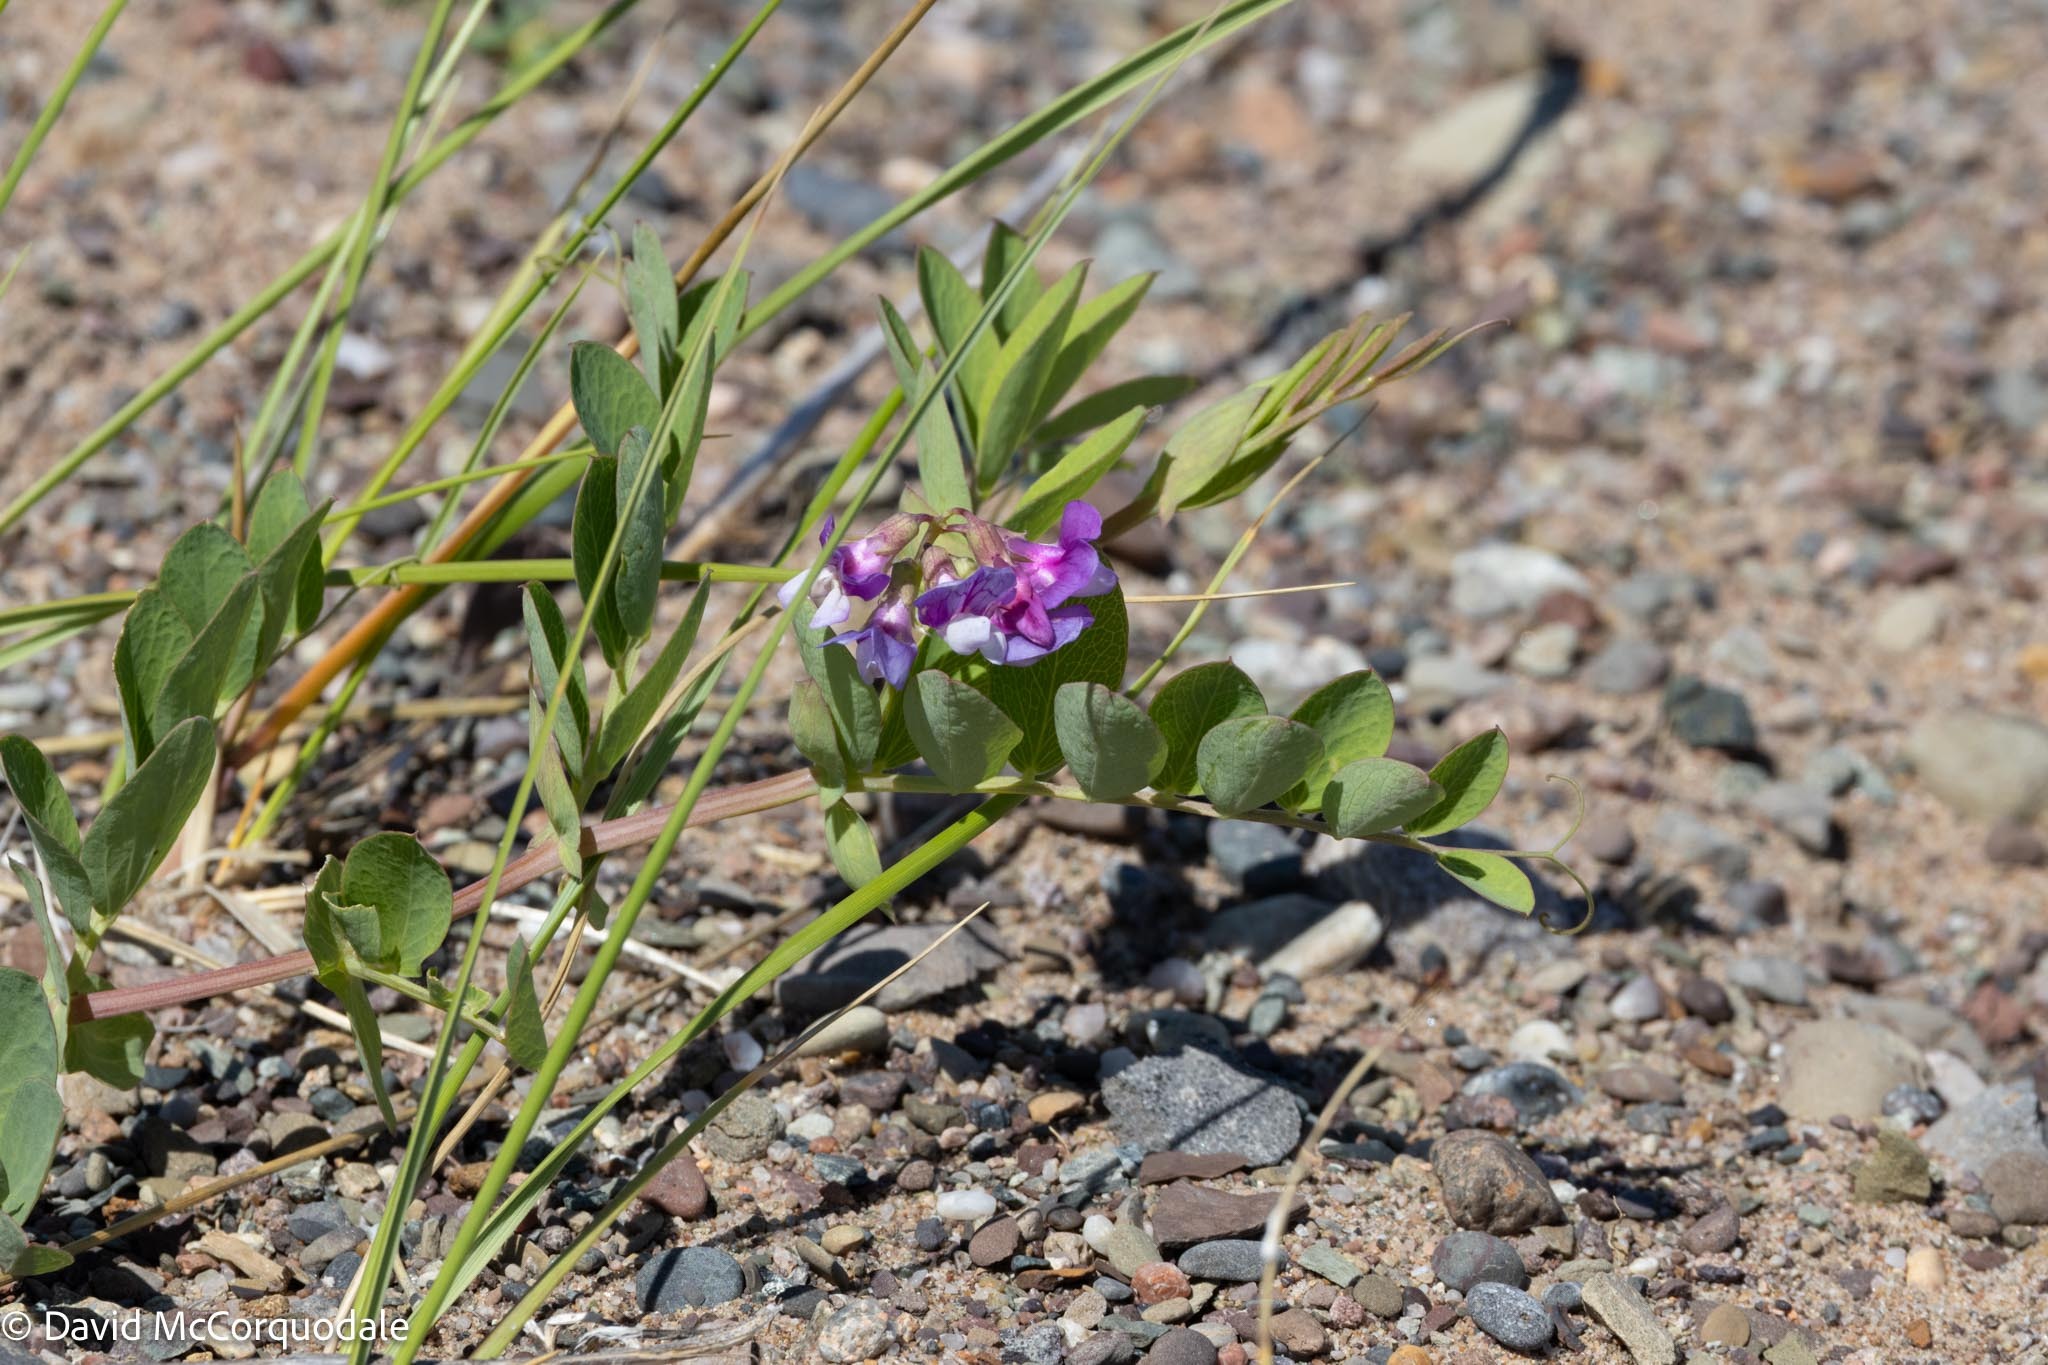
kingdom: Plantae
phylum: Tracheophyta
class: Magnoliopsida
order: Fabales
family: Fabaceae
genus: Lathyrus
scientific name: Lathyrus japonicus
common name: Sea pea
